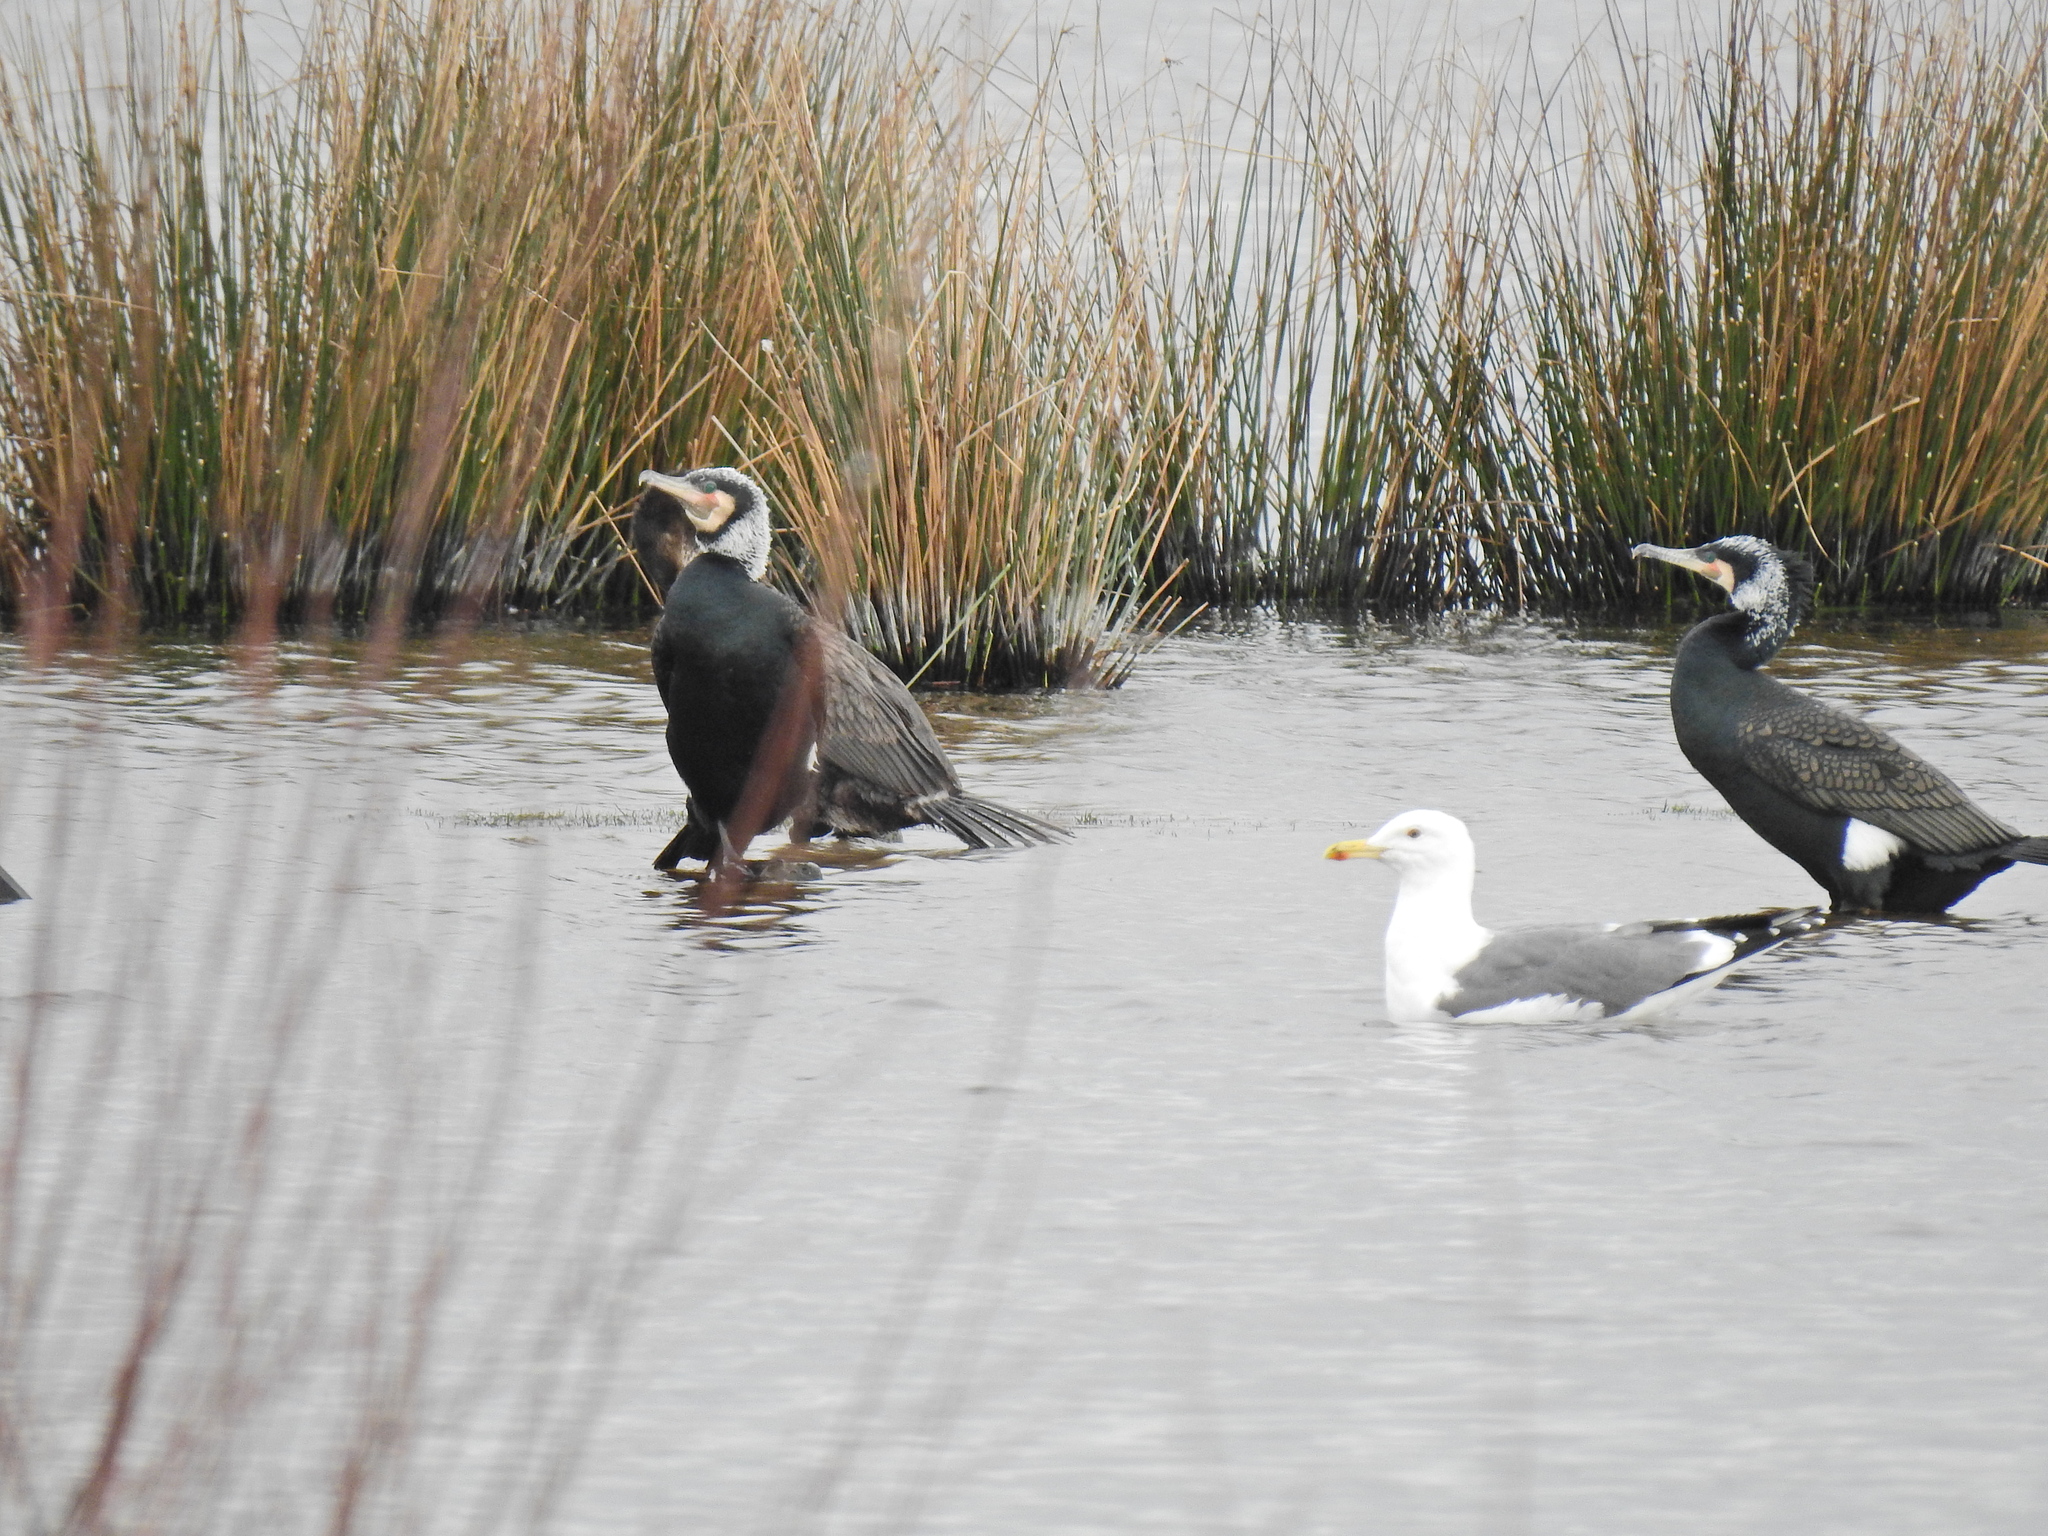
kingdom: Animalia
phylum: Chordata
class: Aves
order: Charadriiformes
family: Laridae
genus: Larus
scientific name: Larus argentatus
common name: Herring gull
